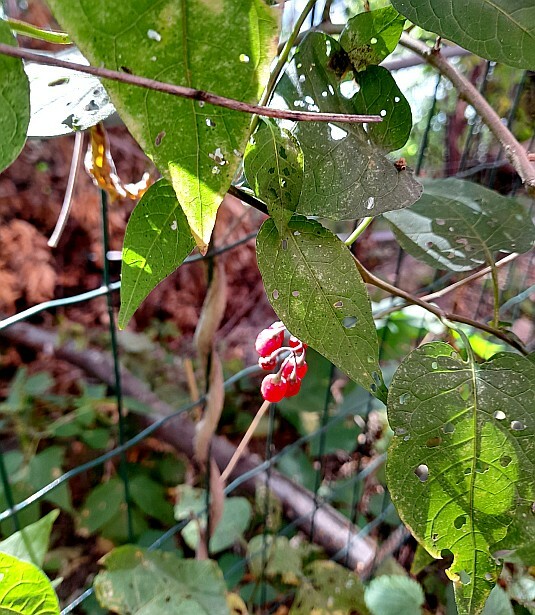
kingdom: Plantae
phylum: Tracheophyta
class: Magnoliopsida
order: Solanales
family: Solanaceae
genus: Solanum
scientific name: Solanum dulcamara
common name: Climbing nightshade
